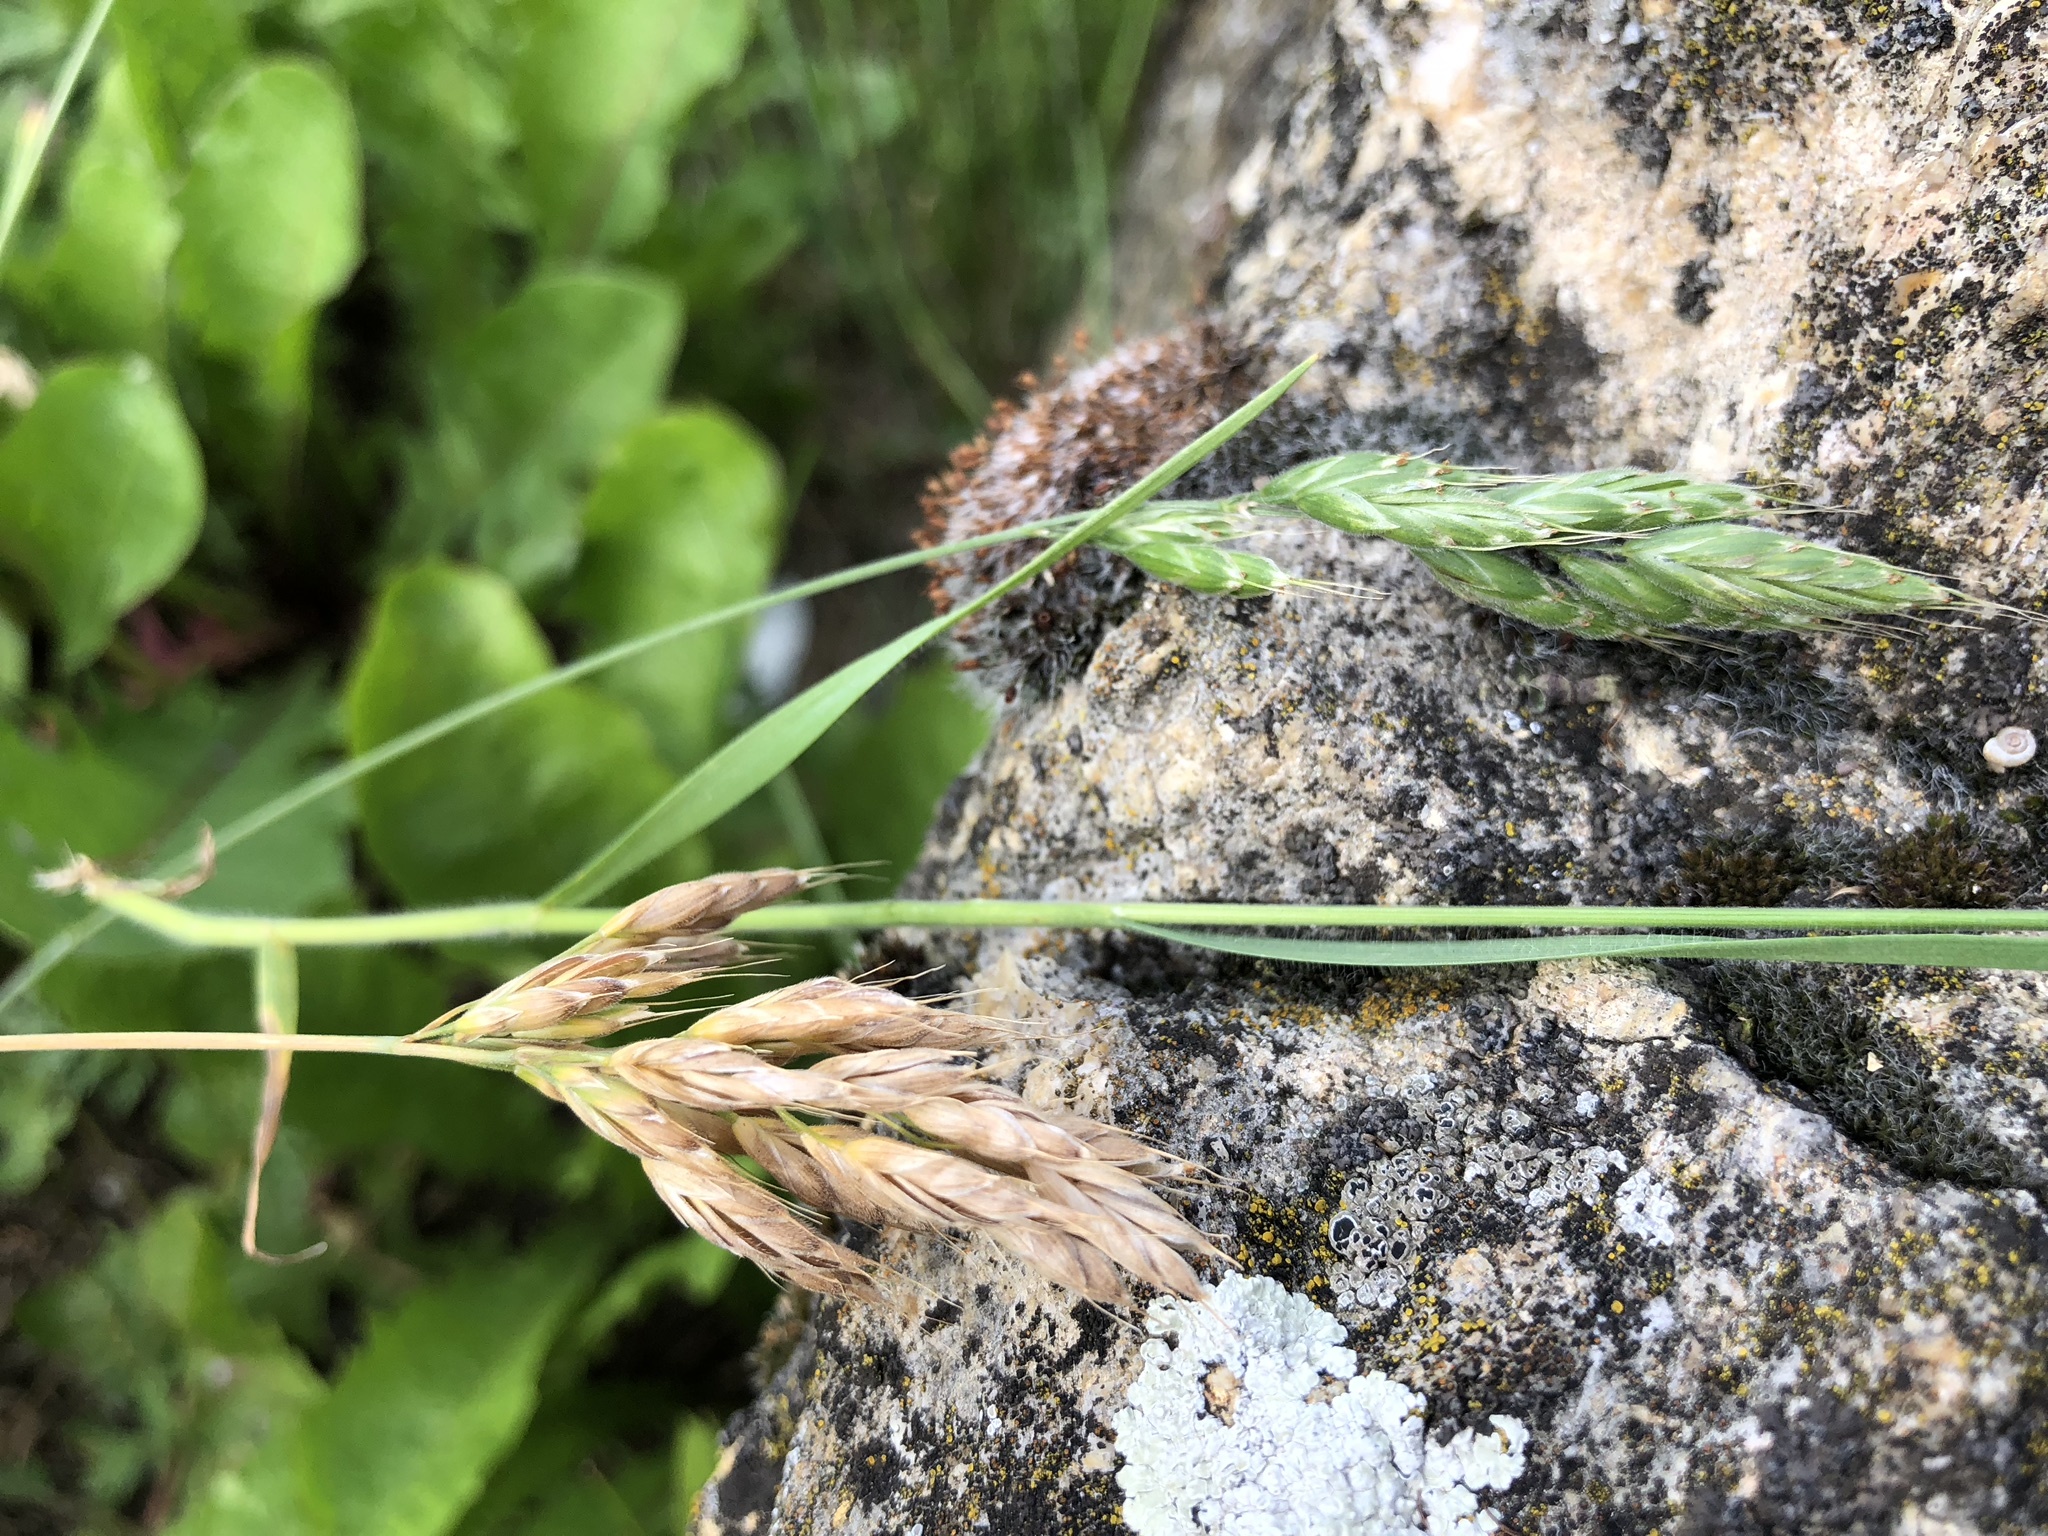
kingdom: Plantae
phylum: Tracheophyta
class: Liliopsida
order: Poales
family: Poaceae
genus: Bromus
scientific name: Bromus hordeaceus
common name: Soft brome
